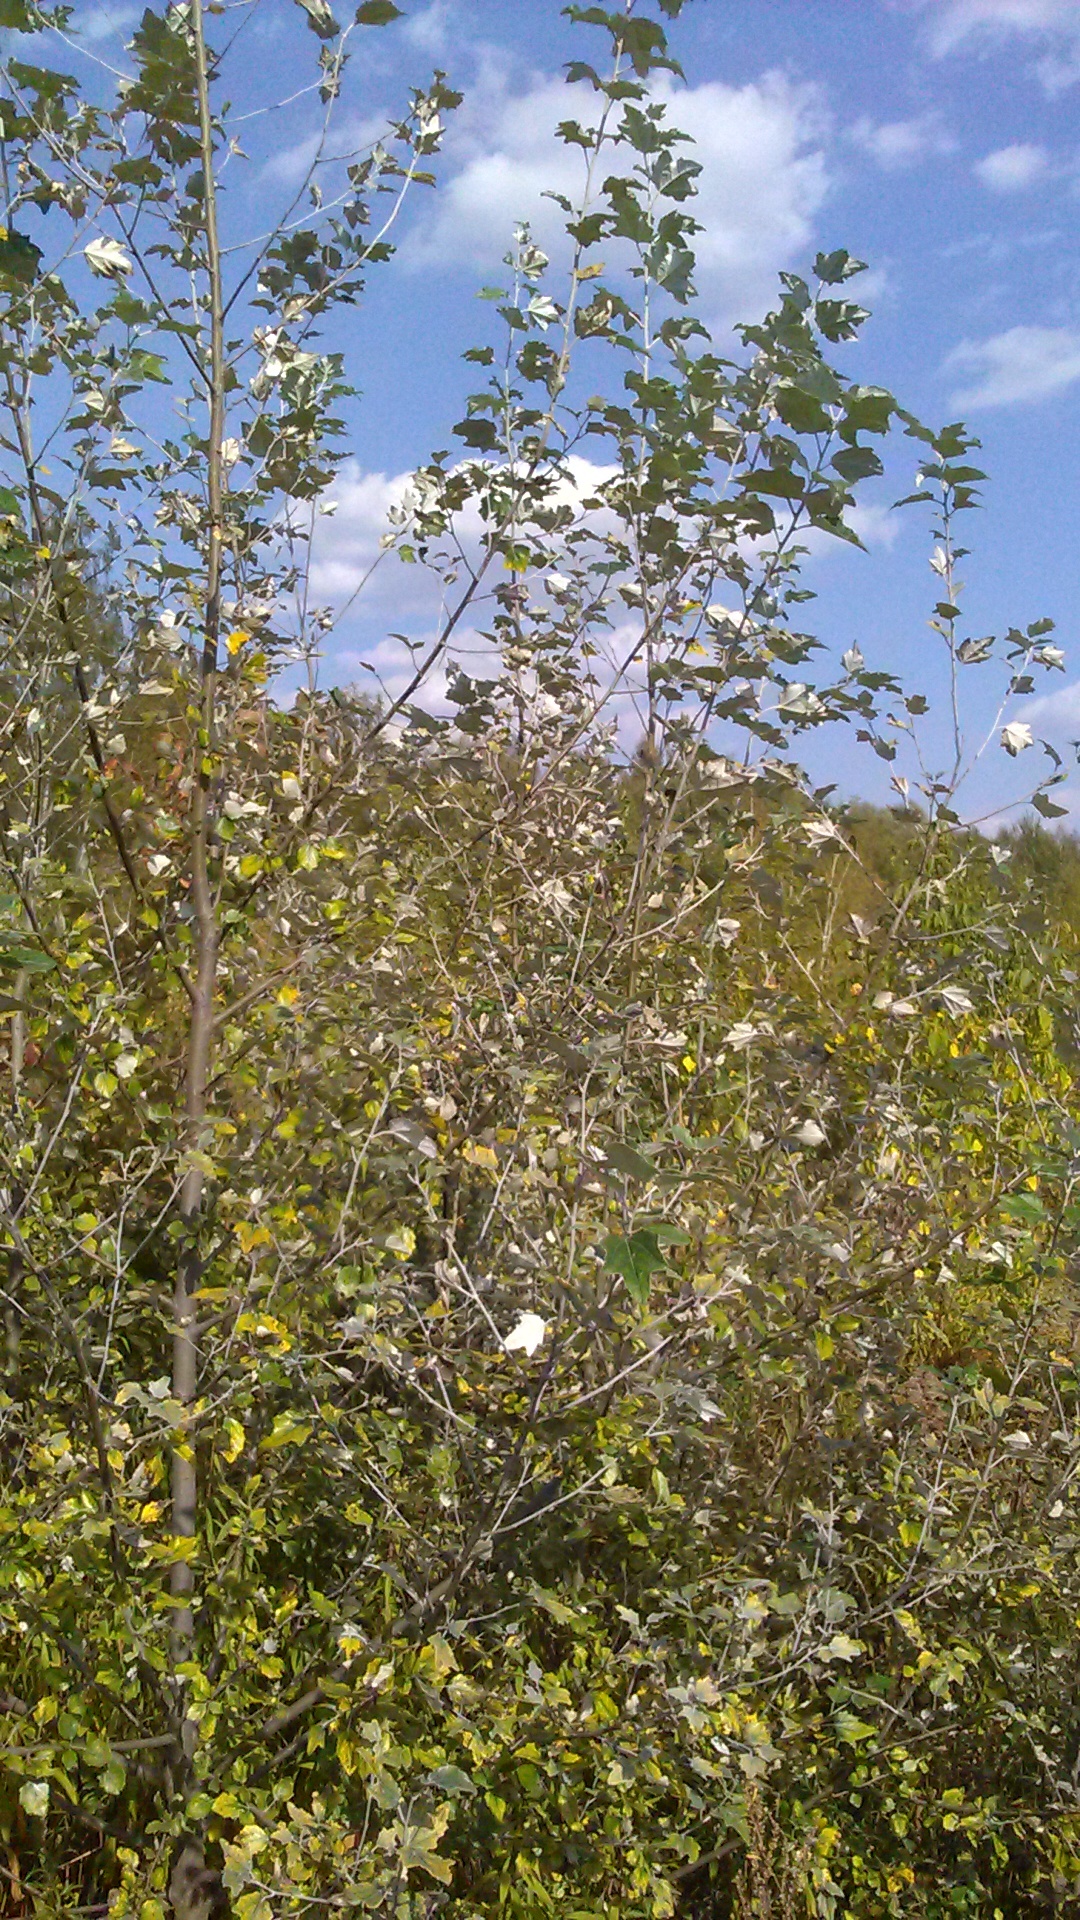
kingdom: Plantae
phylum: Tracheophyta
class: Magnoliopsida
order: Malpighiales
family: Salicaceae
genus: Populus
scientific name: Populus alba
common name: White poplar
